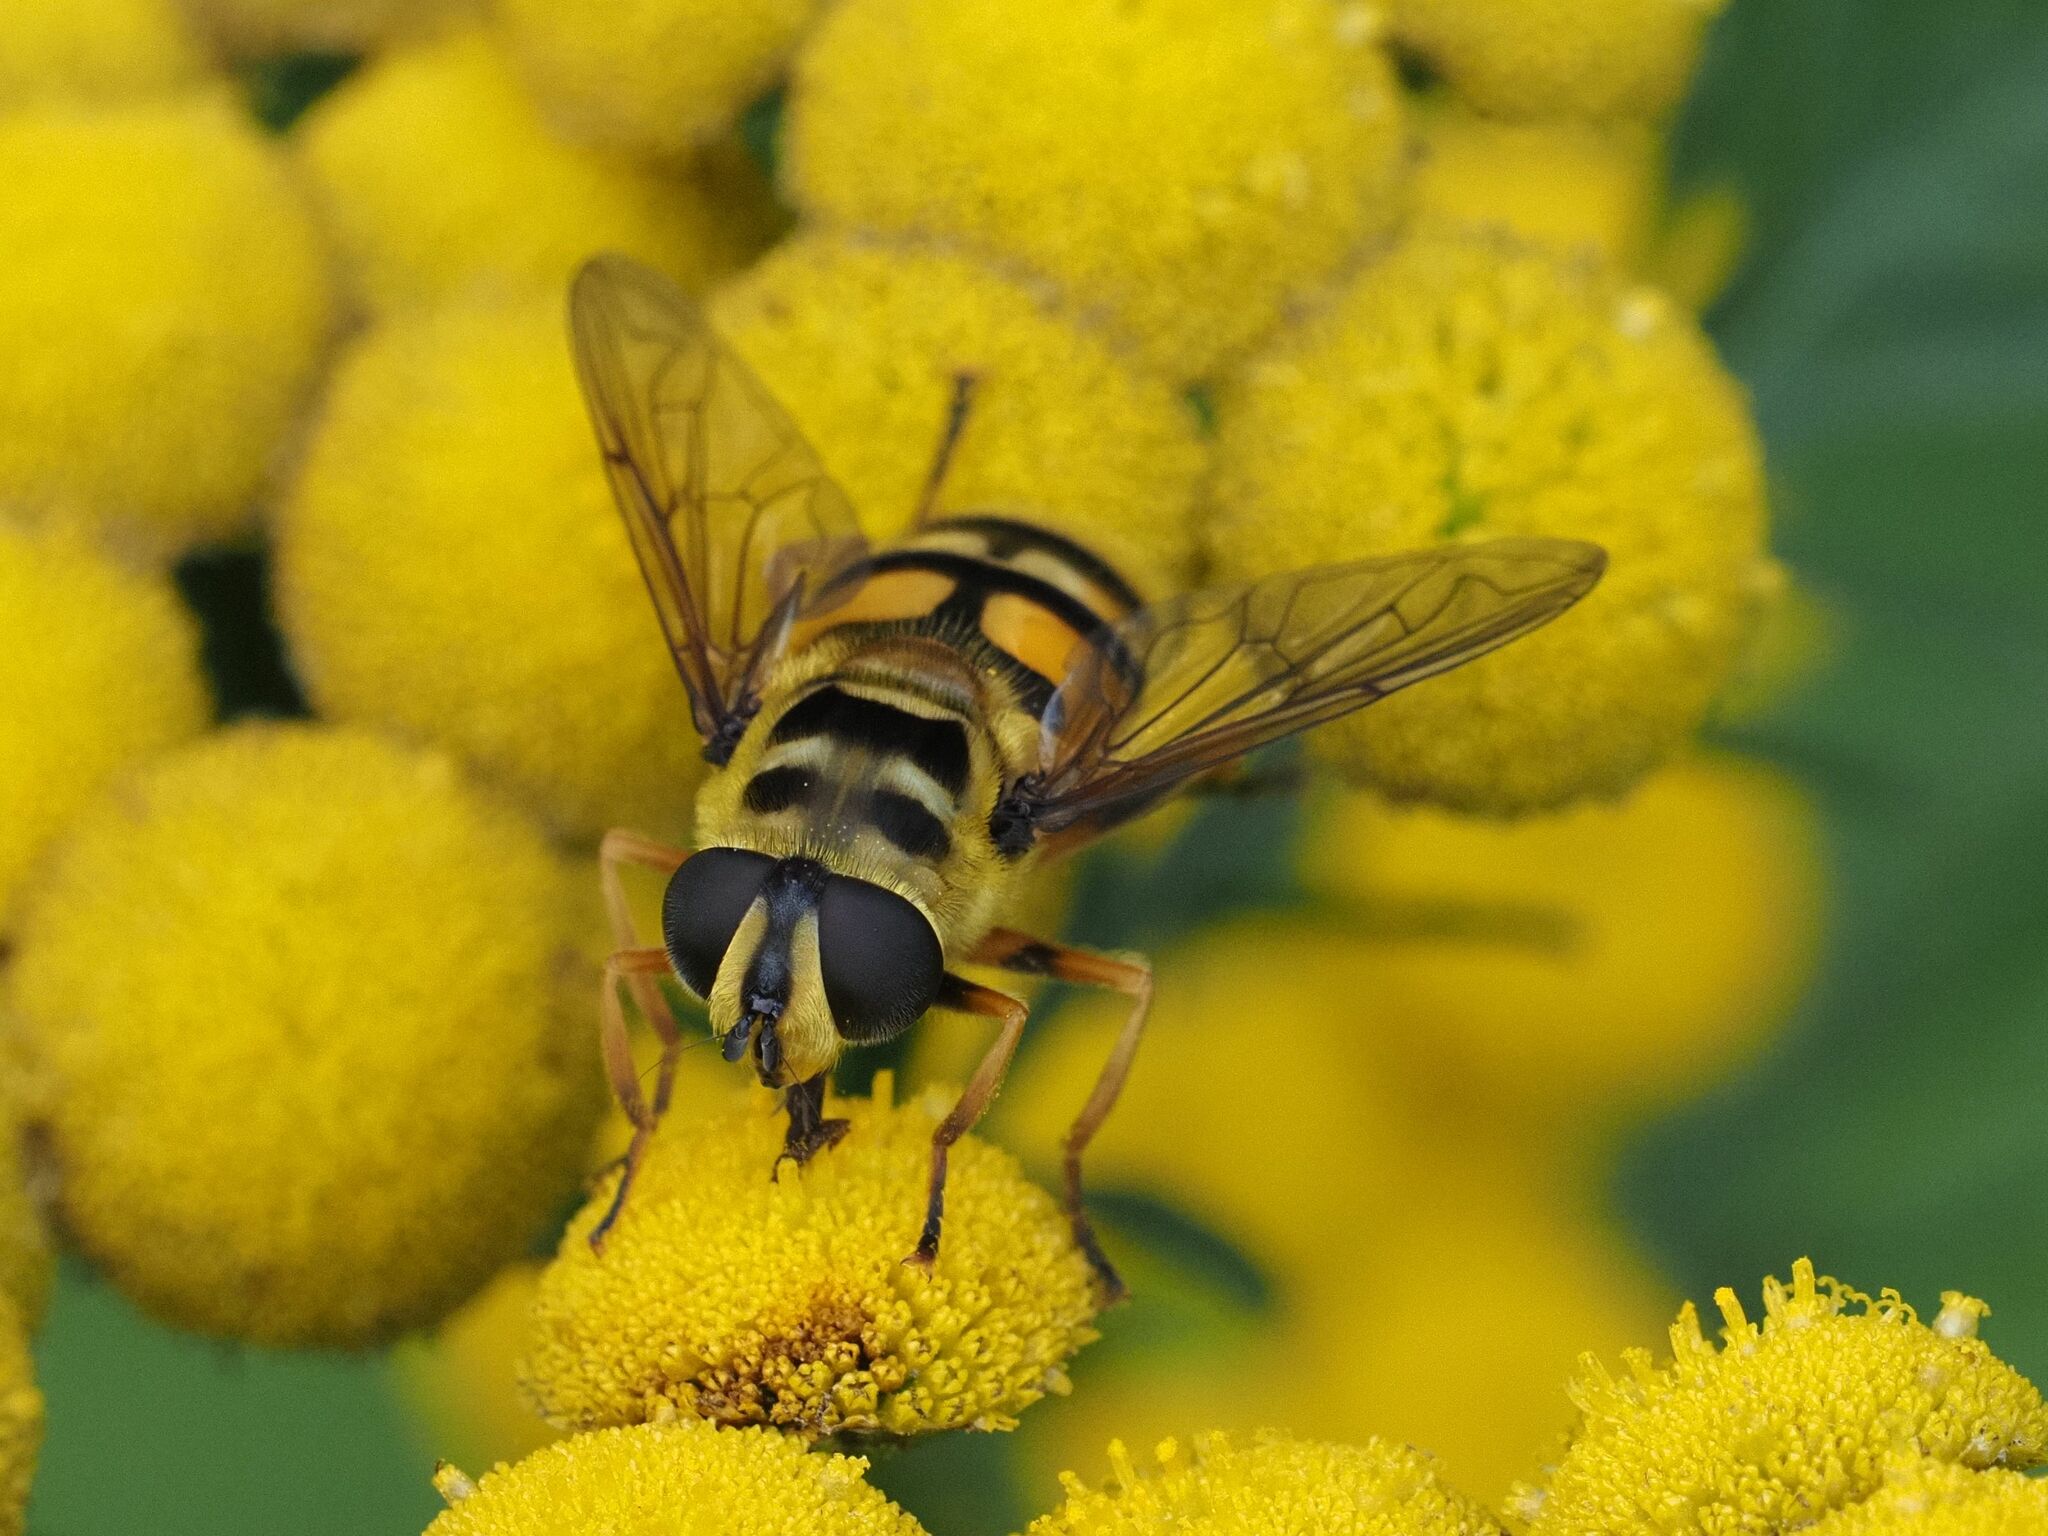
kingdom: Animalia
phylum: Arthropoda
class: Insecta
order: Diptera
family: Syrphidae
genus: Myathropa
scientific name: Myathropa florea
